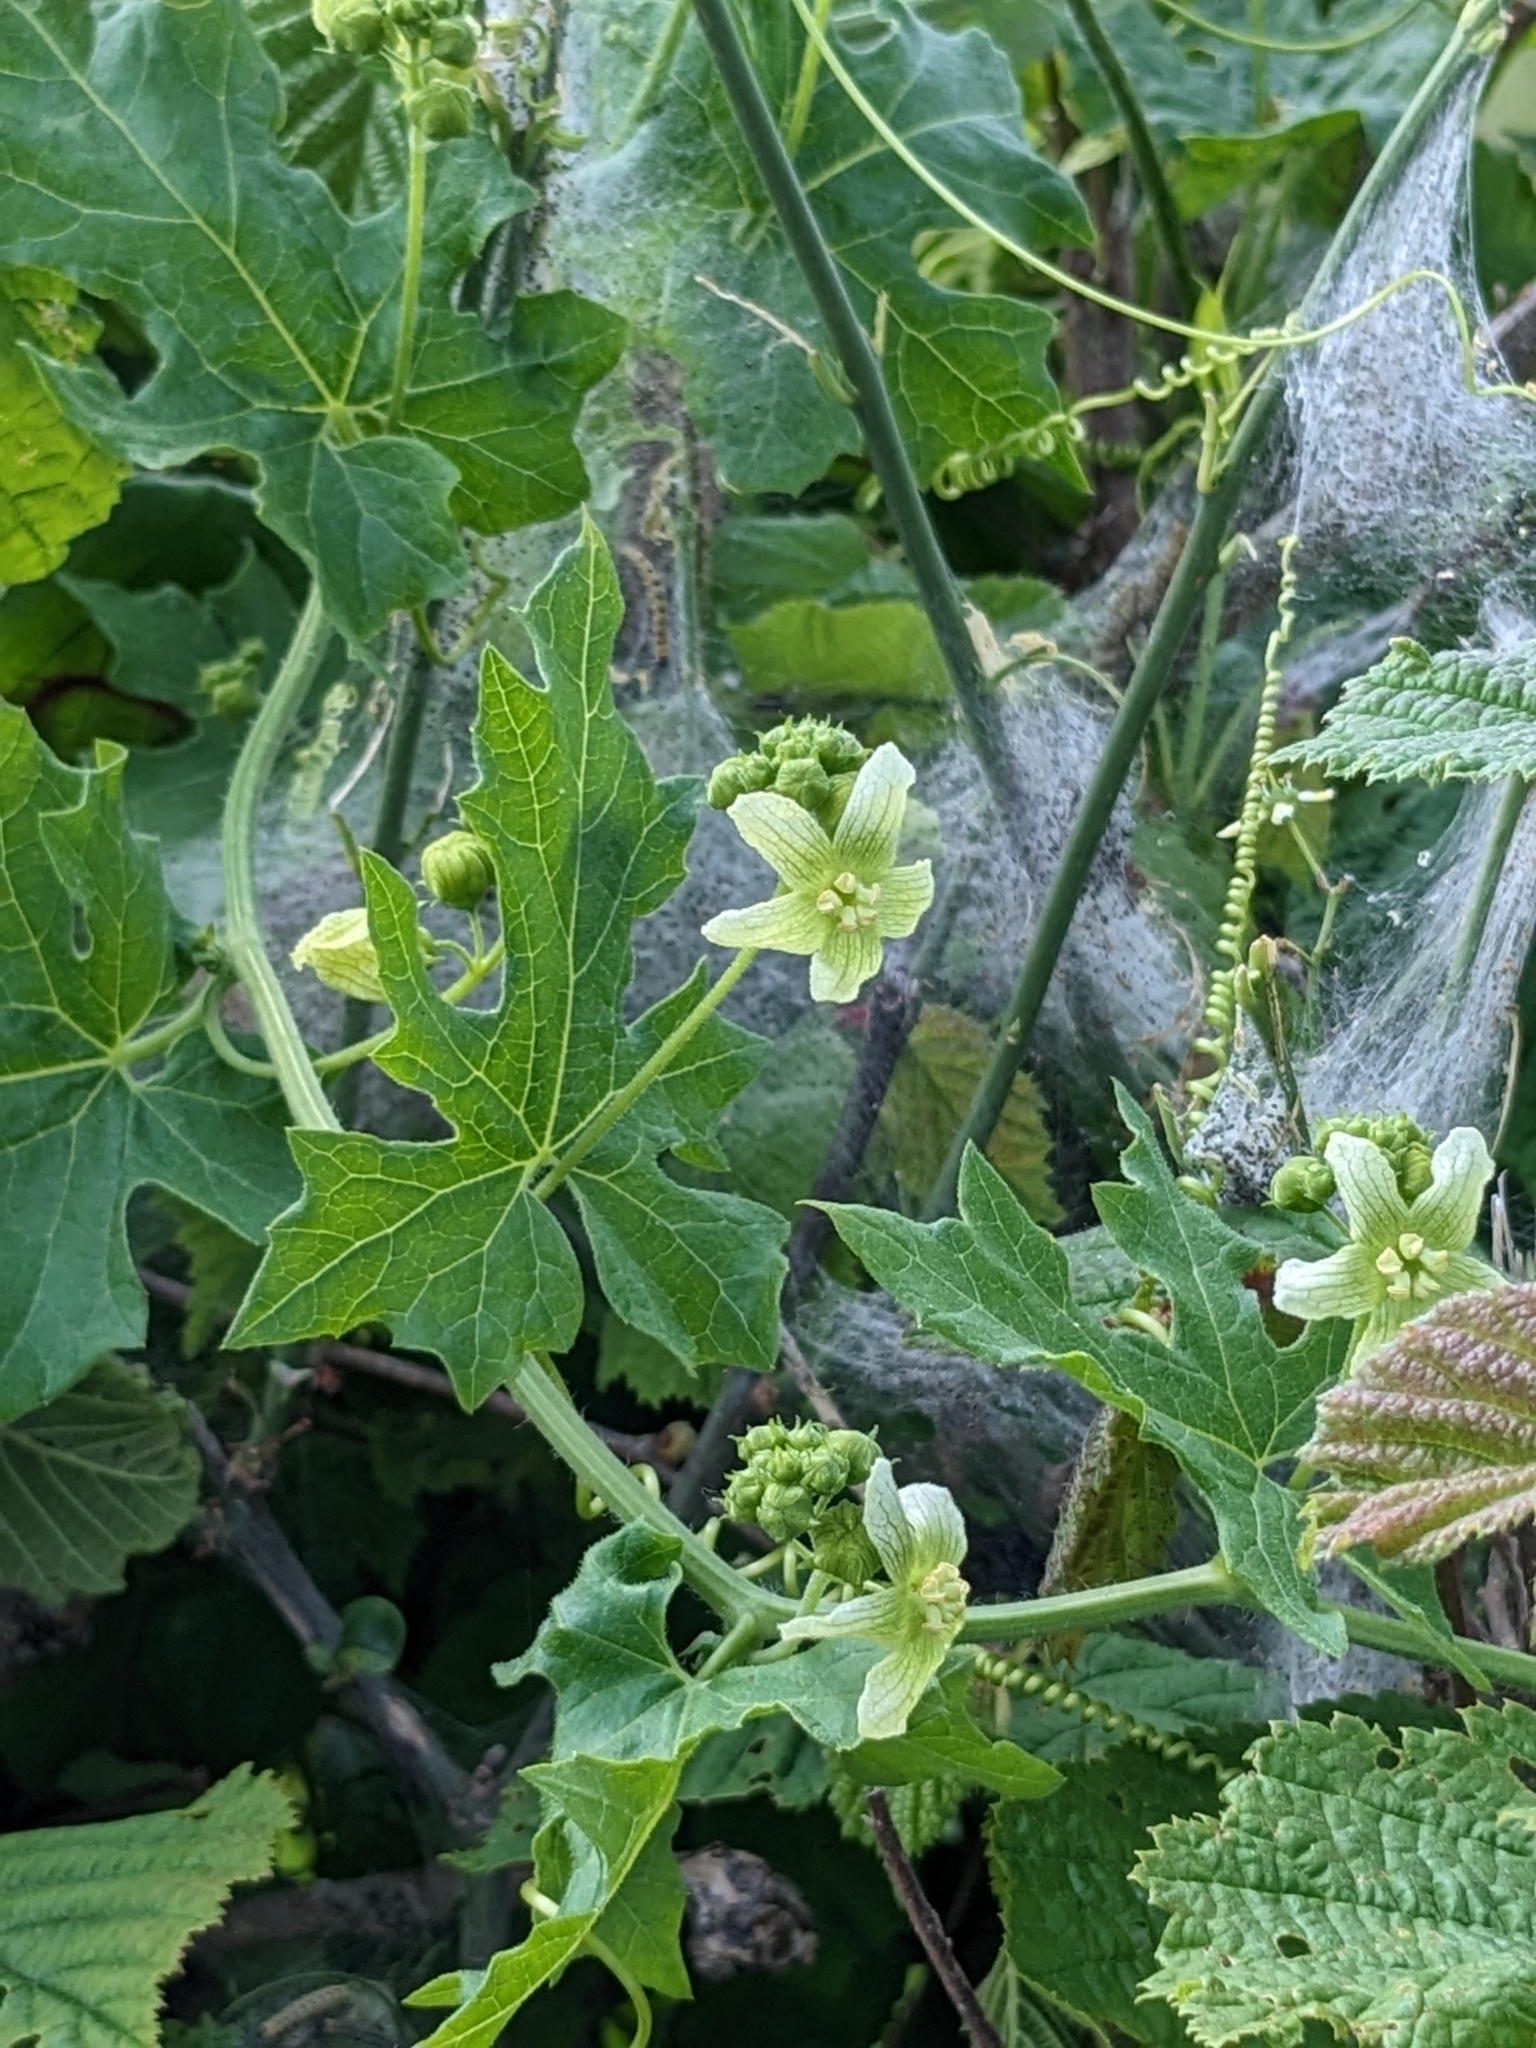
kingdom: Plantae
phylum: Tracheophyta
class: Magnoliopsida
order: Cucurbitales
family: Cucurbitaceae
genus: Bryonia
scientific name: Bryonia cretica
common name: Cretan bryony
